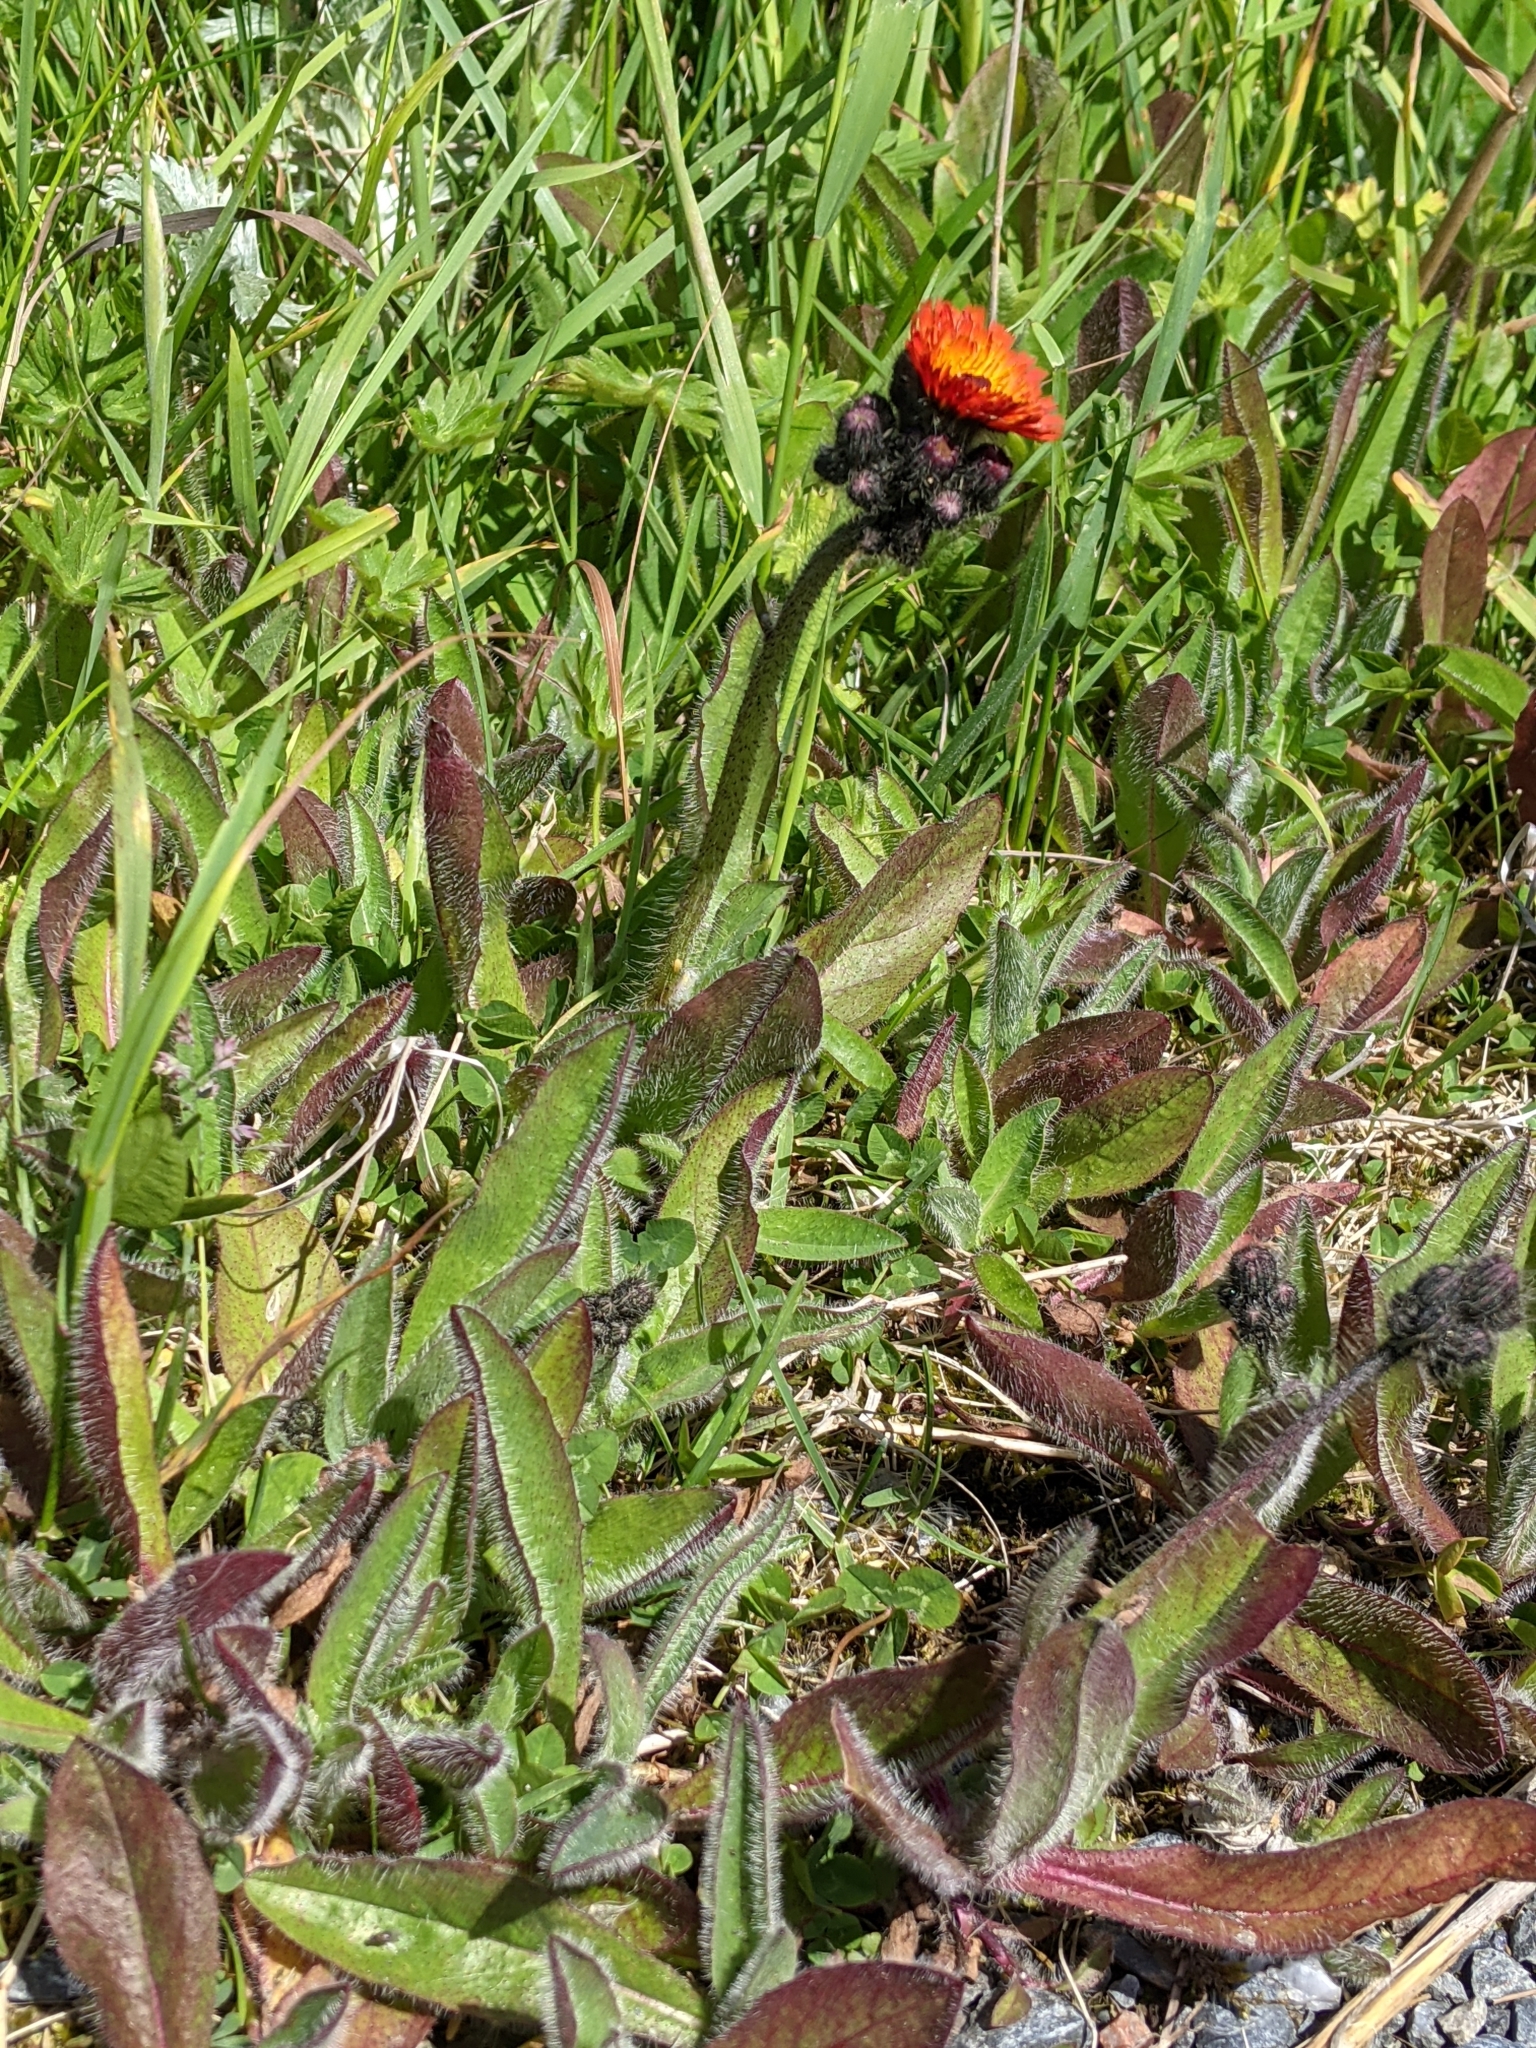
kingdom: Plantae
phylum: Tracheophyta
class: Magnoliopsida
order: Asterales
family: Asteraceae
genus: Pilosella
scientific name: Pilosella aurantiaca
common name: Fox-and-cubs
